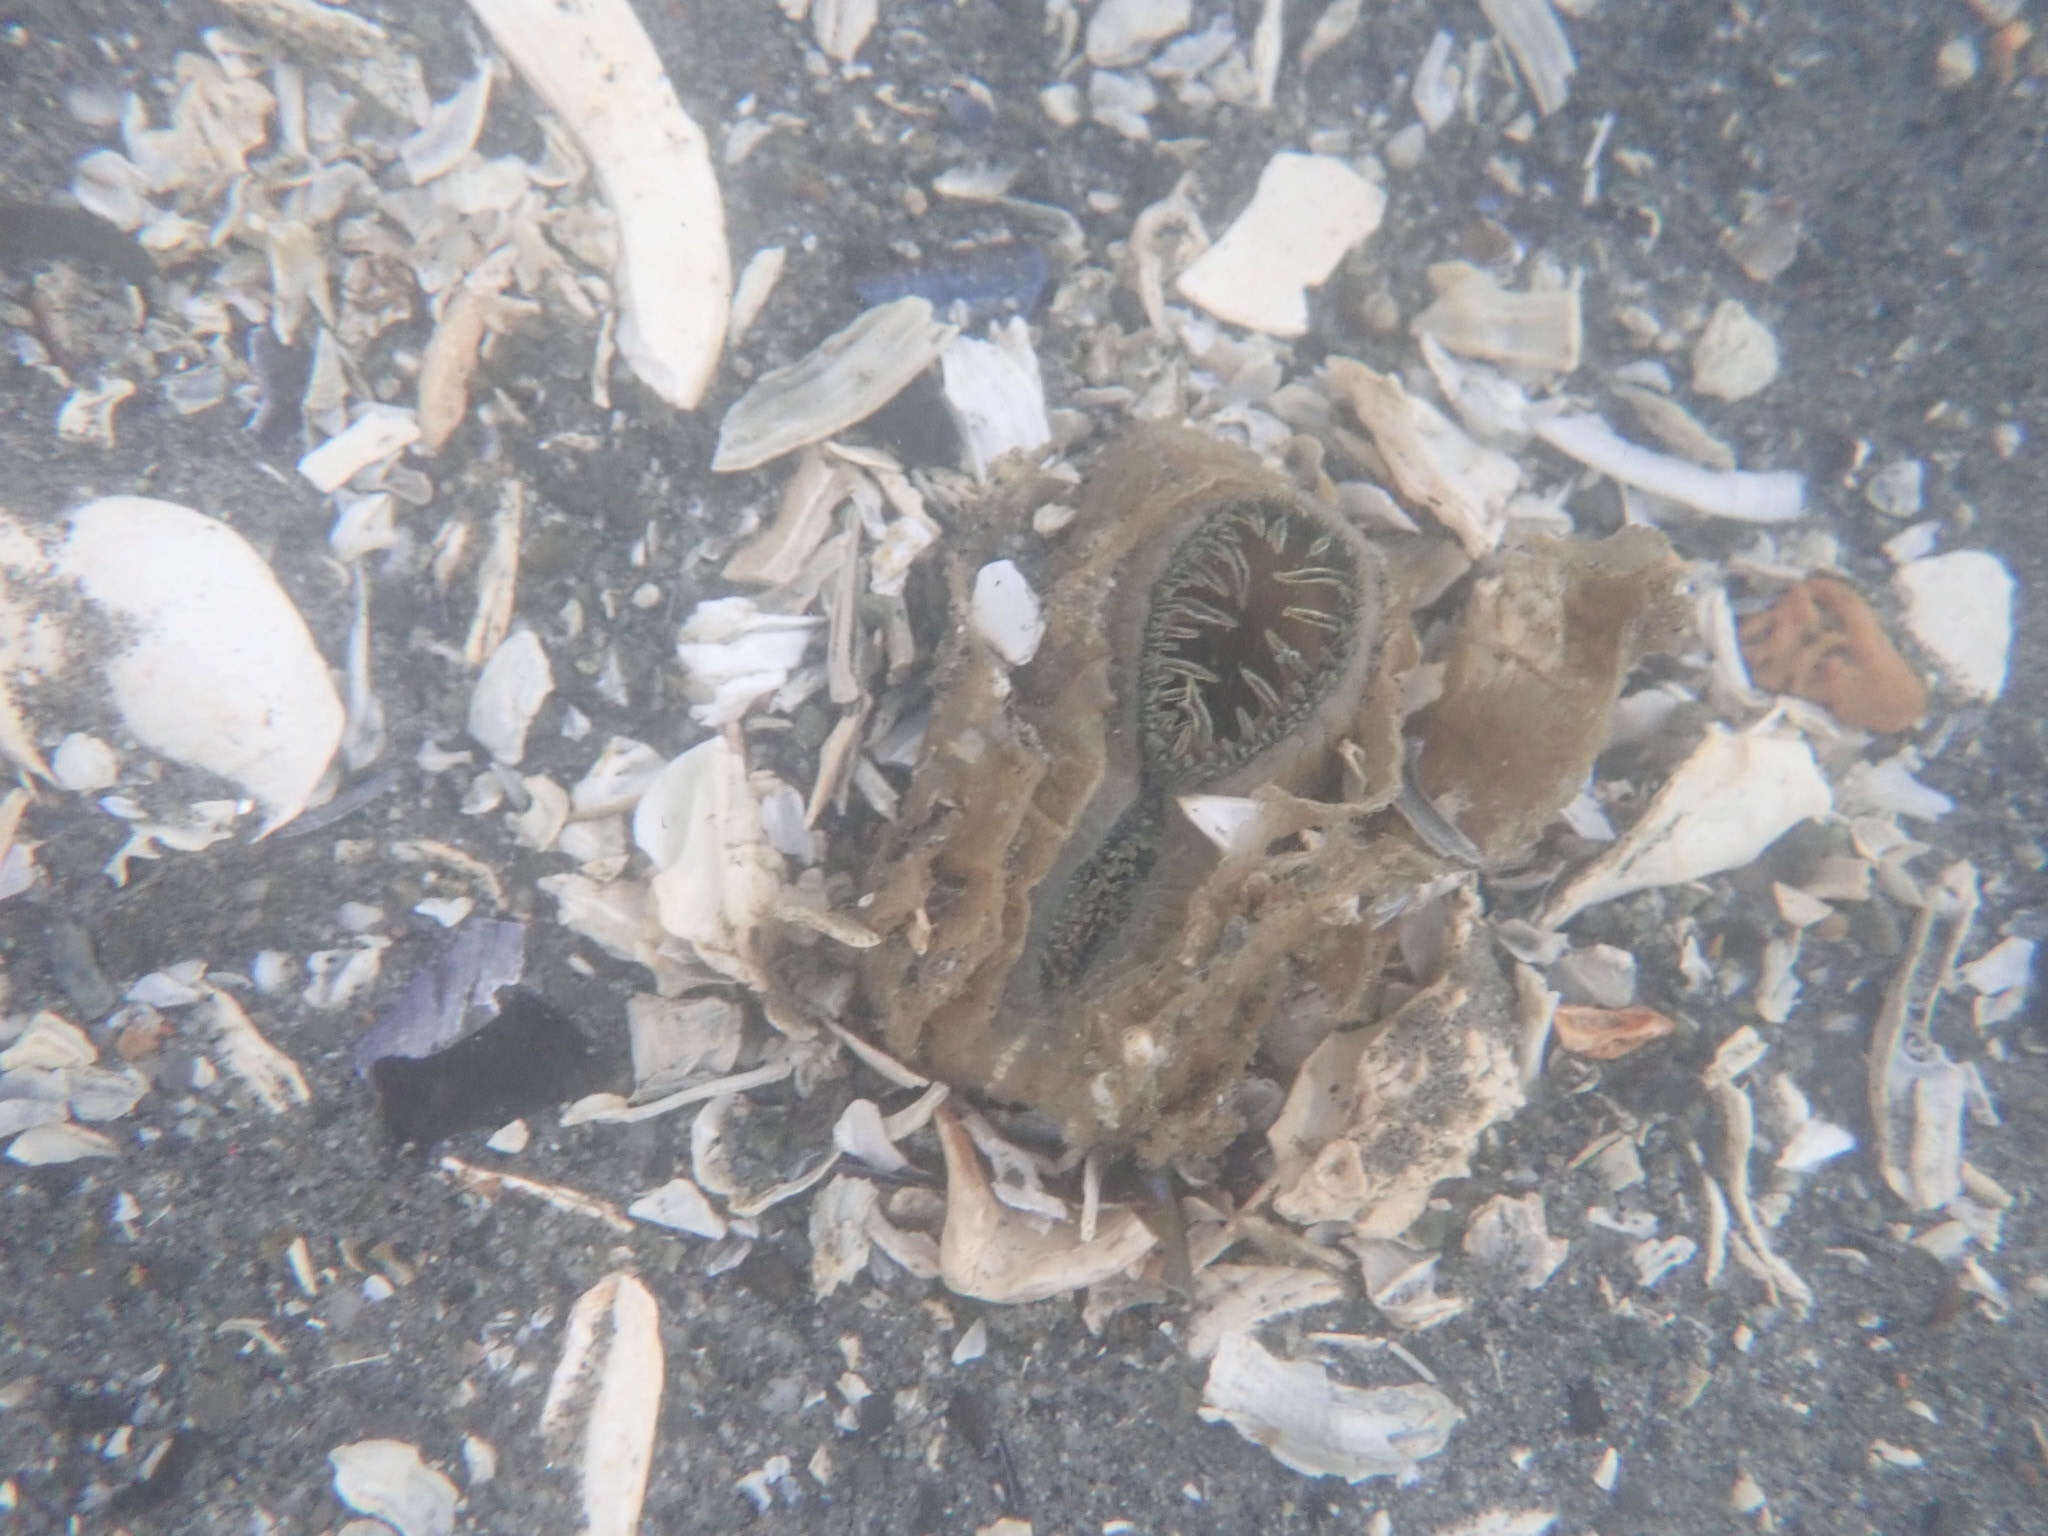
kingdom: Animalia
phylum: Mollusca
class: Bivalvia
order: Venerida
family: Mactridae
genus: Tresus
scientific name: Tresus nuttallii
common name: Pacific gaper clam
